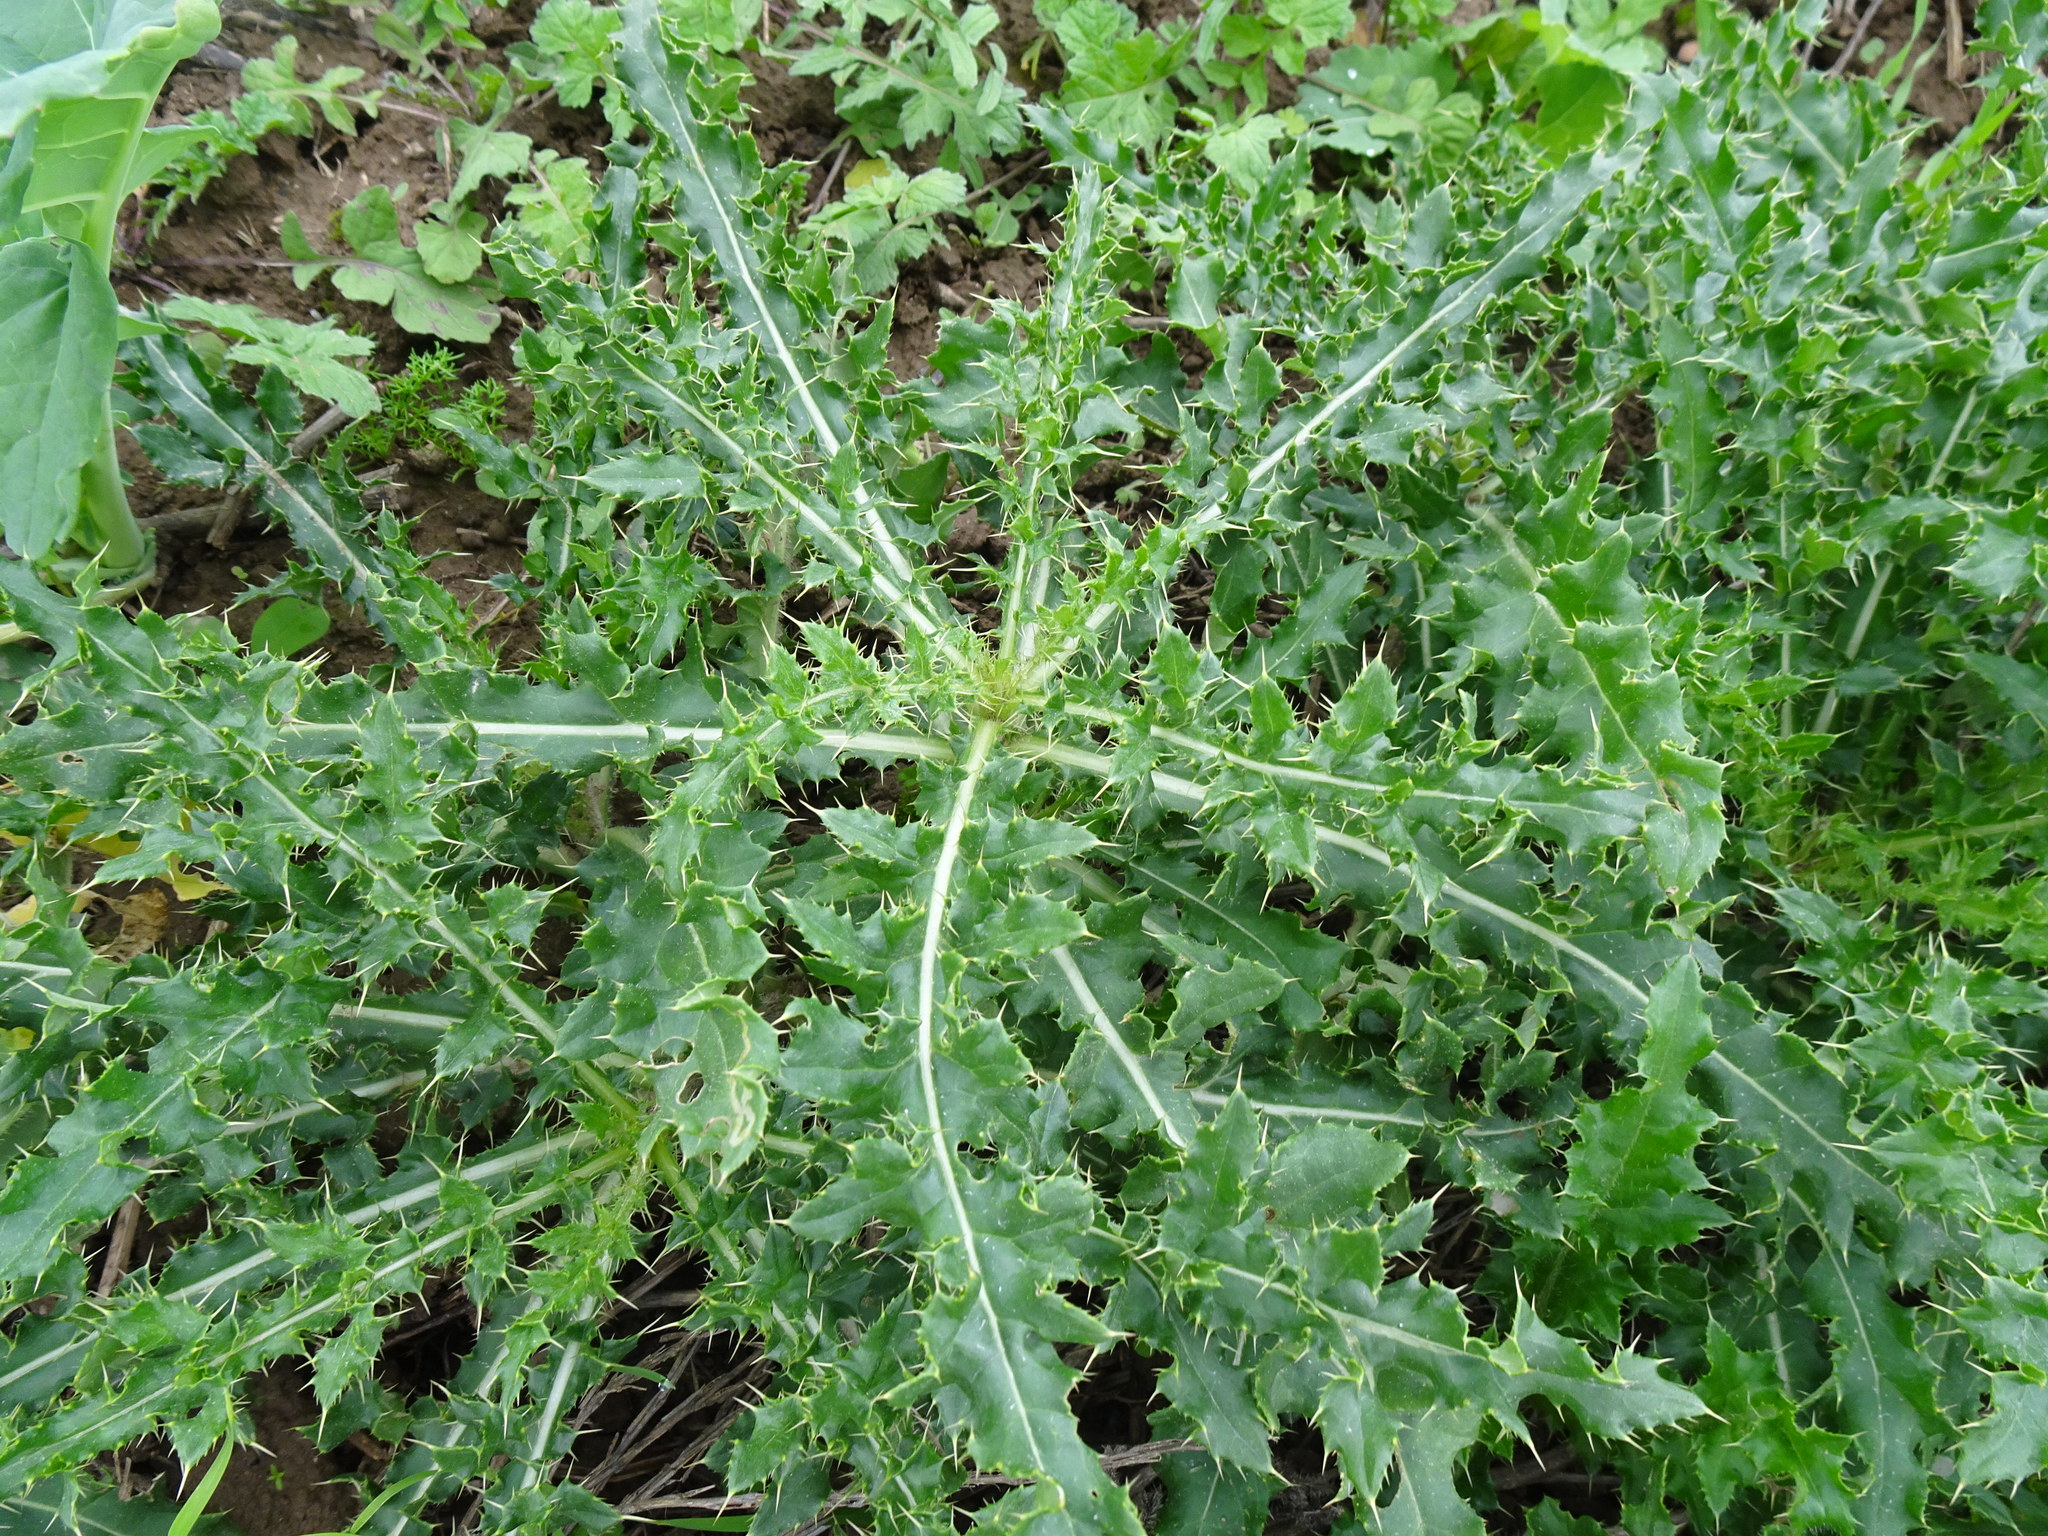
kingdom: Plantae
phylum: Tracheophyta
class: Magnoliopsida
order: Asterales
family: Asteraceae
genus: Cirsium
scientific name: Cirsium arvense
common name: Creeping thistle
